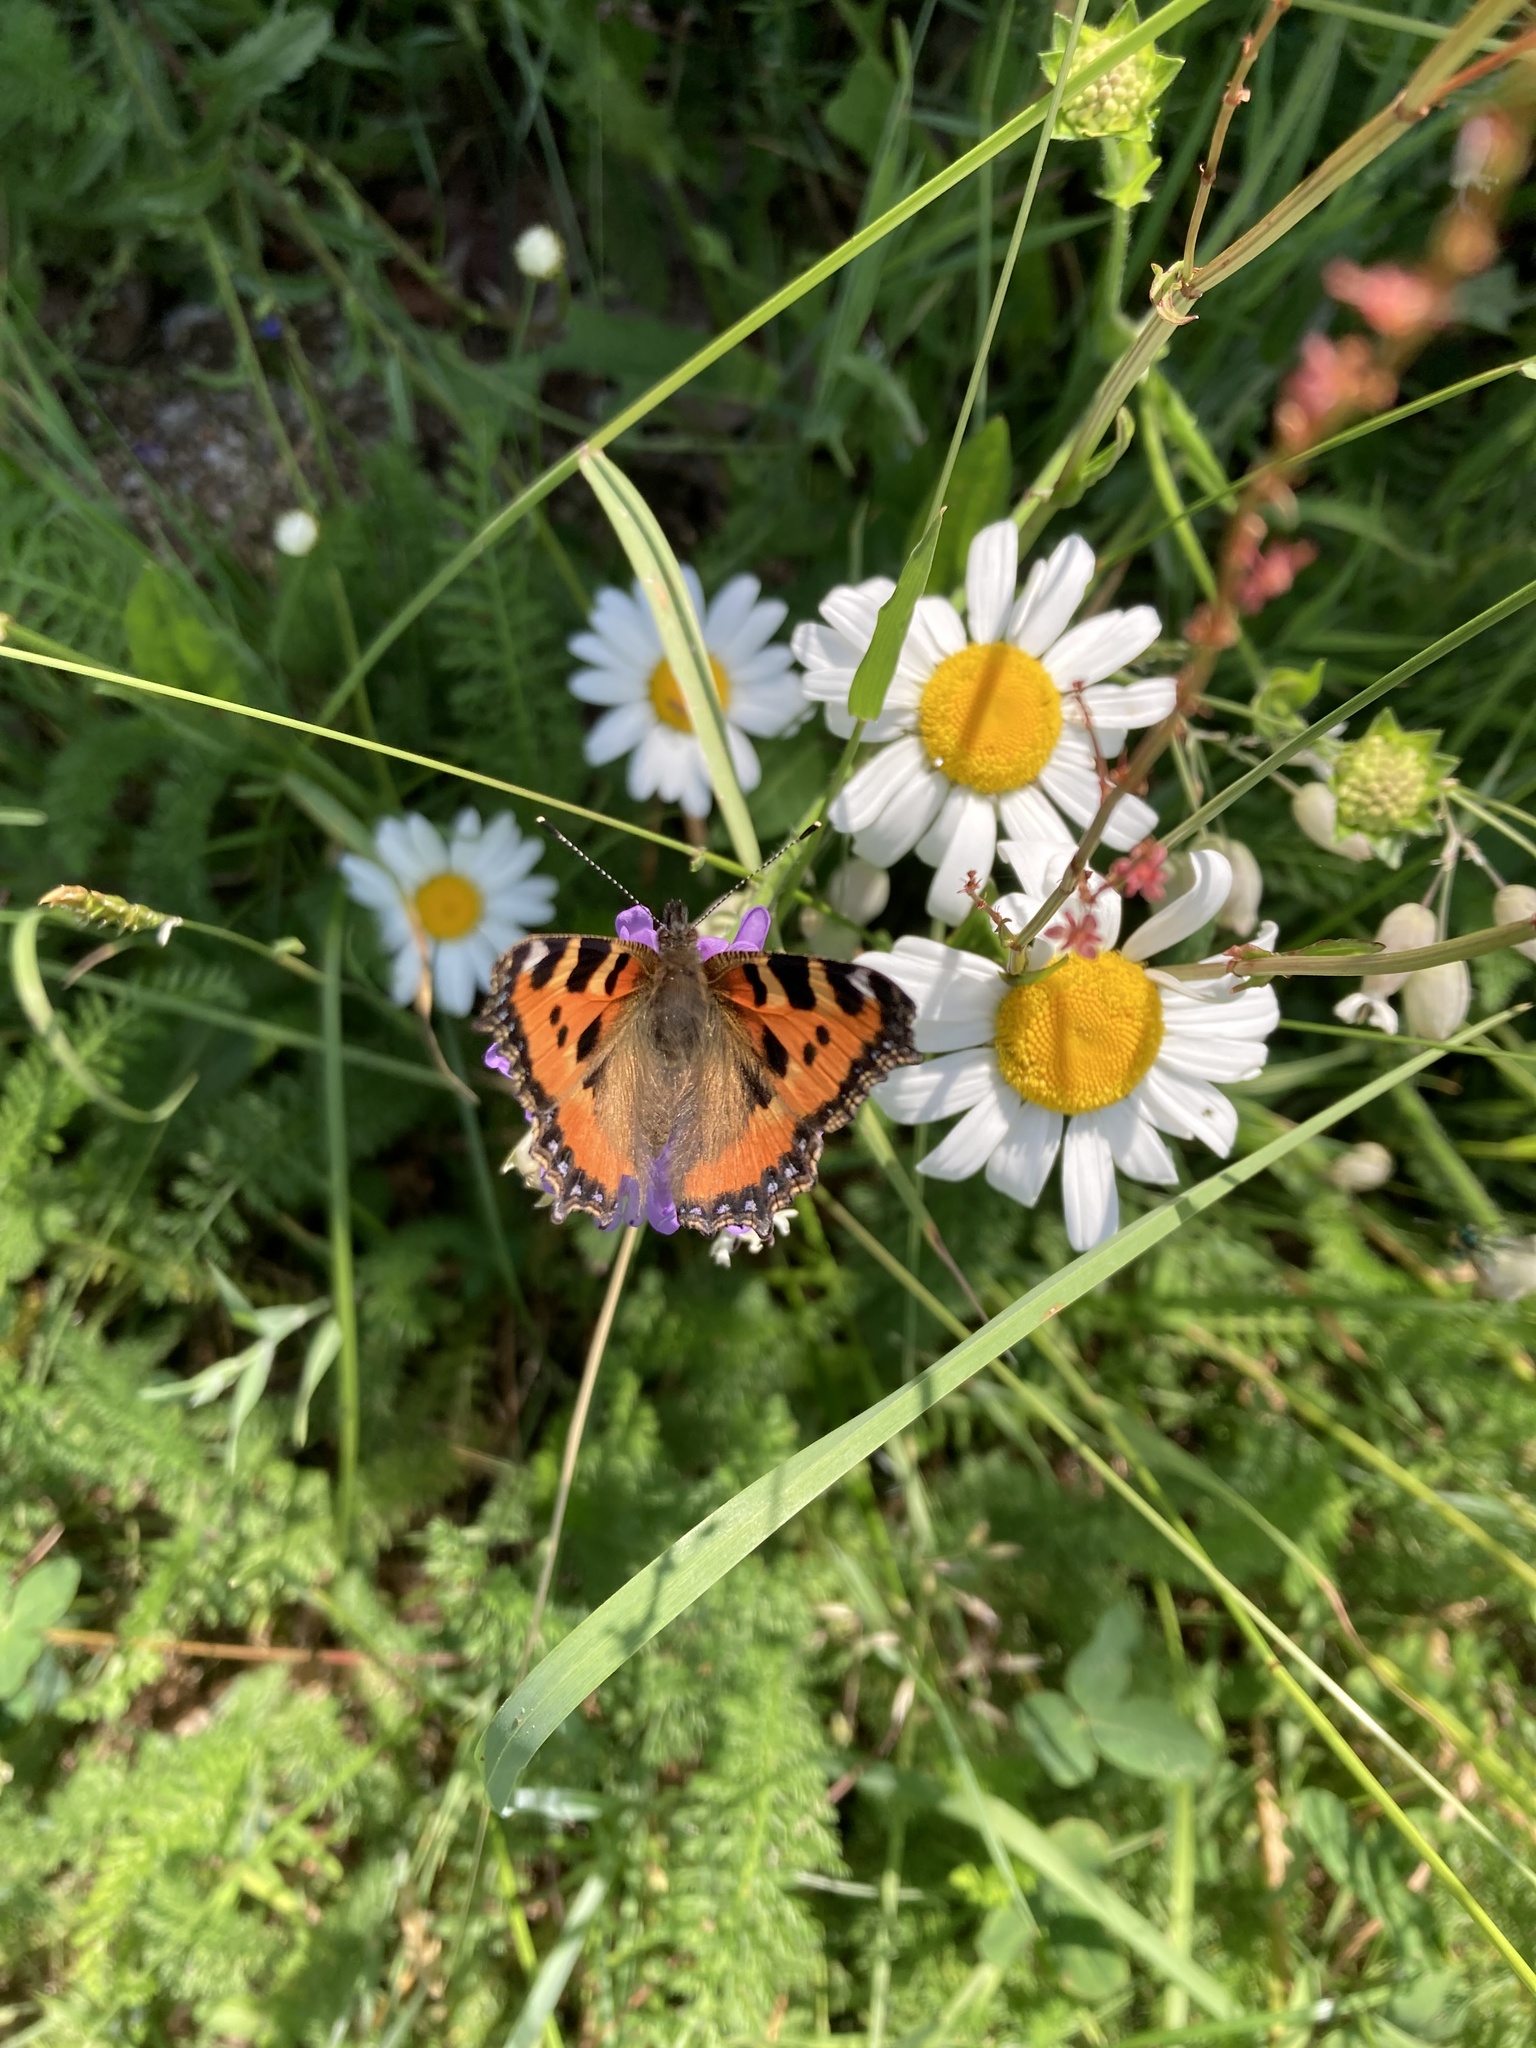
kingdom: Animalia
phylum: Arthropoda
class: Insecta
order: Lepidoptera
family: Nymphalidae
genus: Aglais
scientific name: Aglais urticae
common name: Small tortoiseshell
